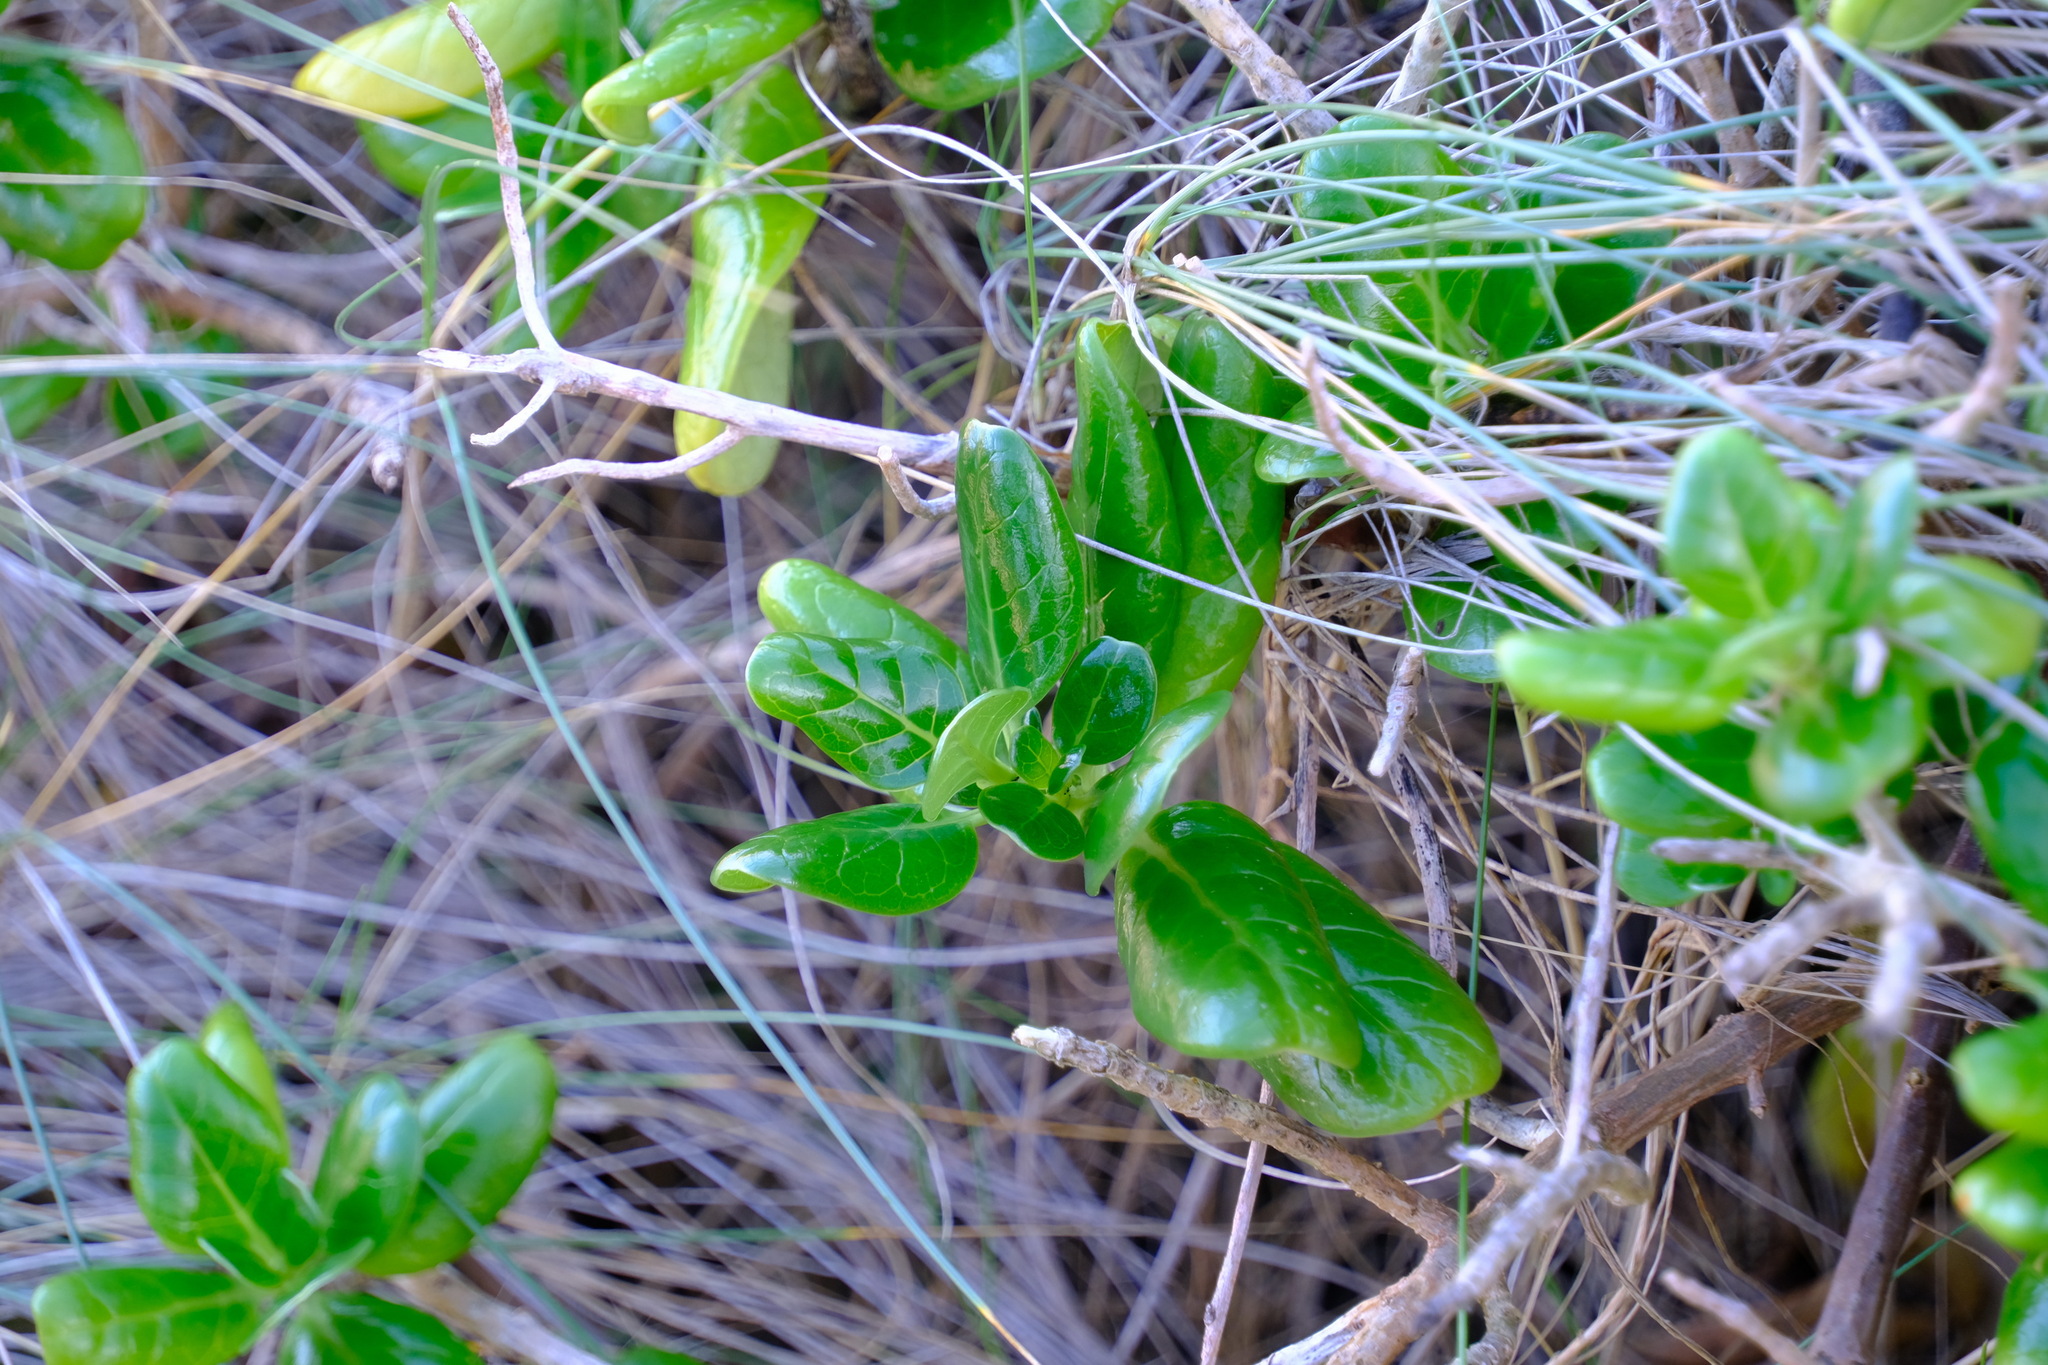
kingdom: Plantae
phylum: Tracheophyta
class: Magnoliopsida
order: Gentianales
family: Rubiaceae
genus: Coprosma
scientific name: Coprosma repens
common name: Tree bedstraw
